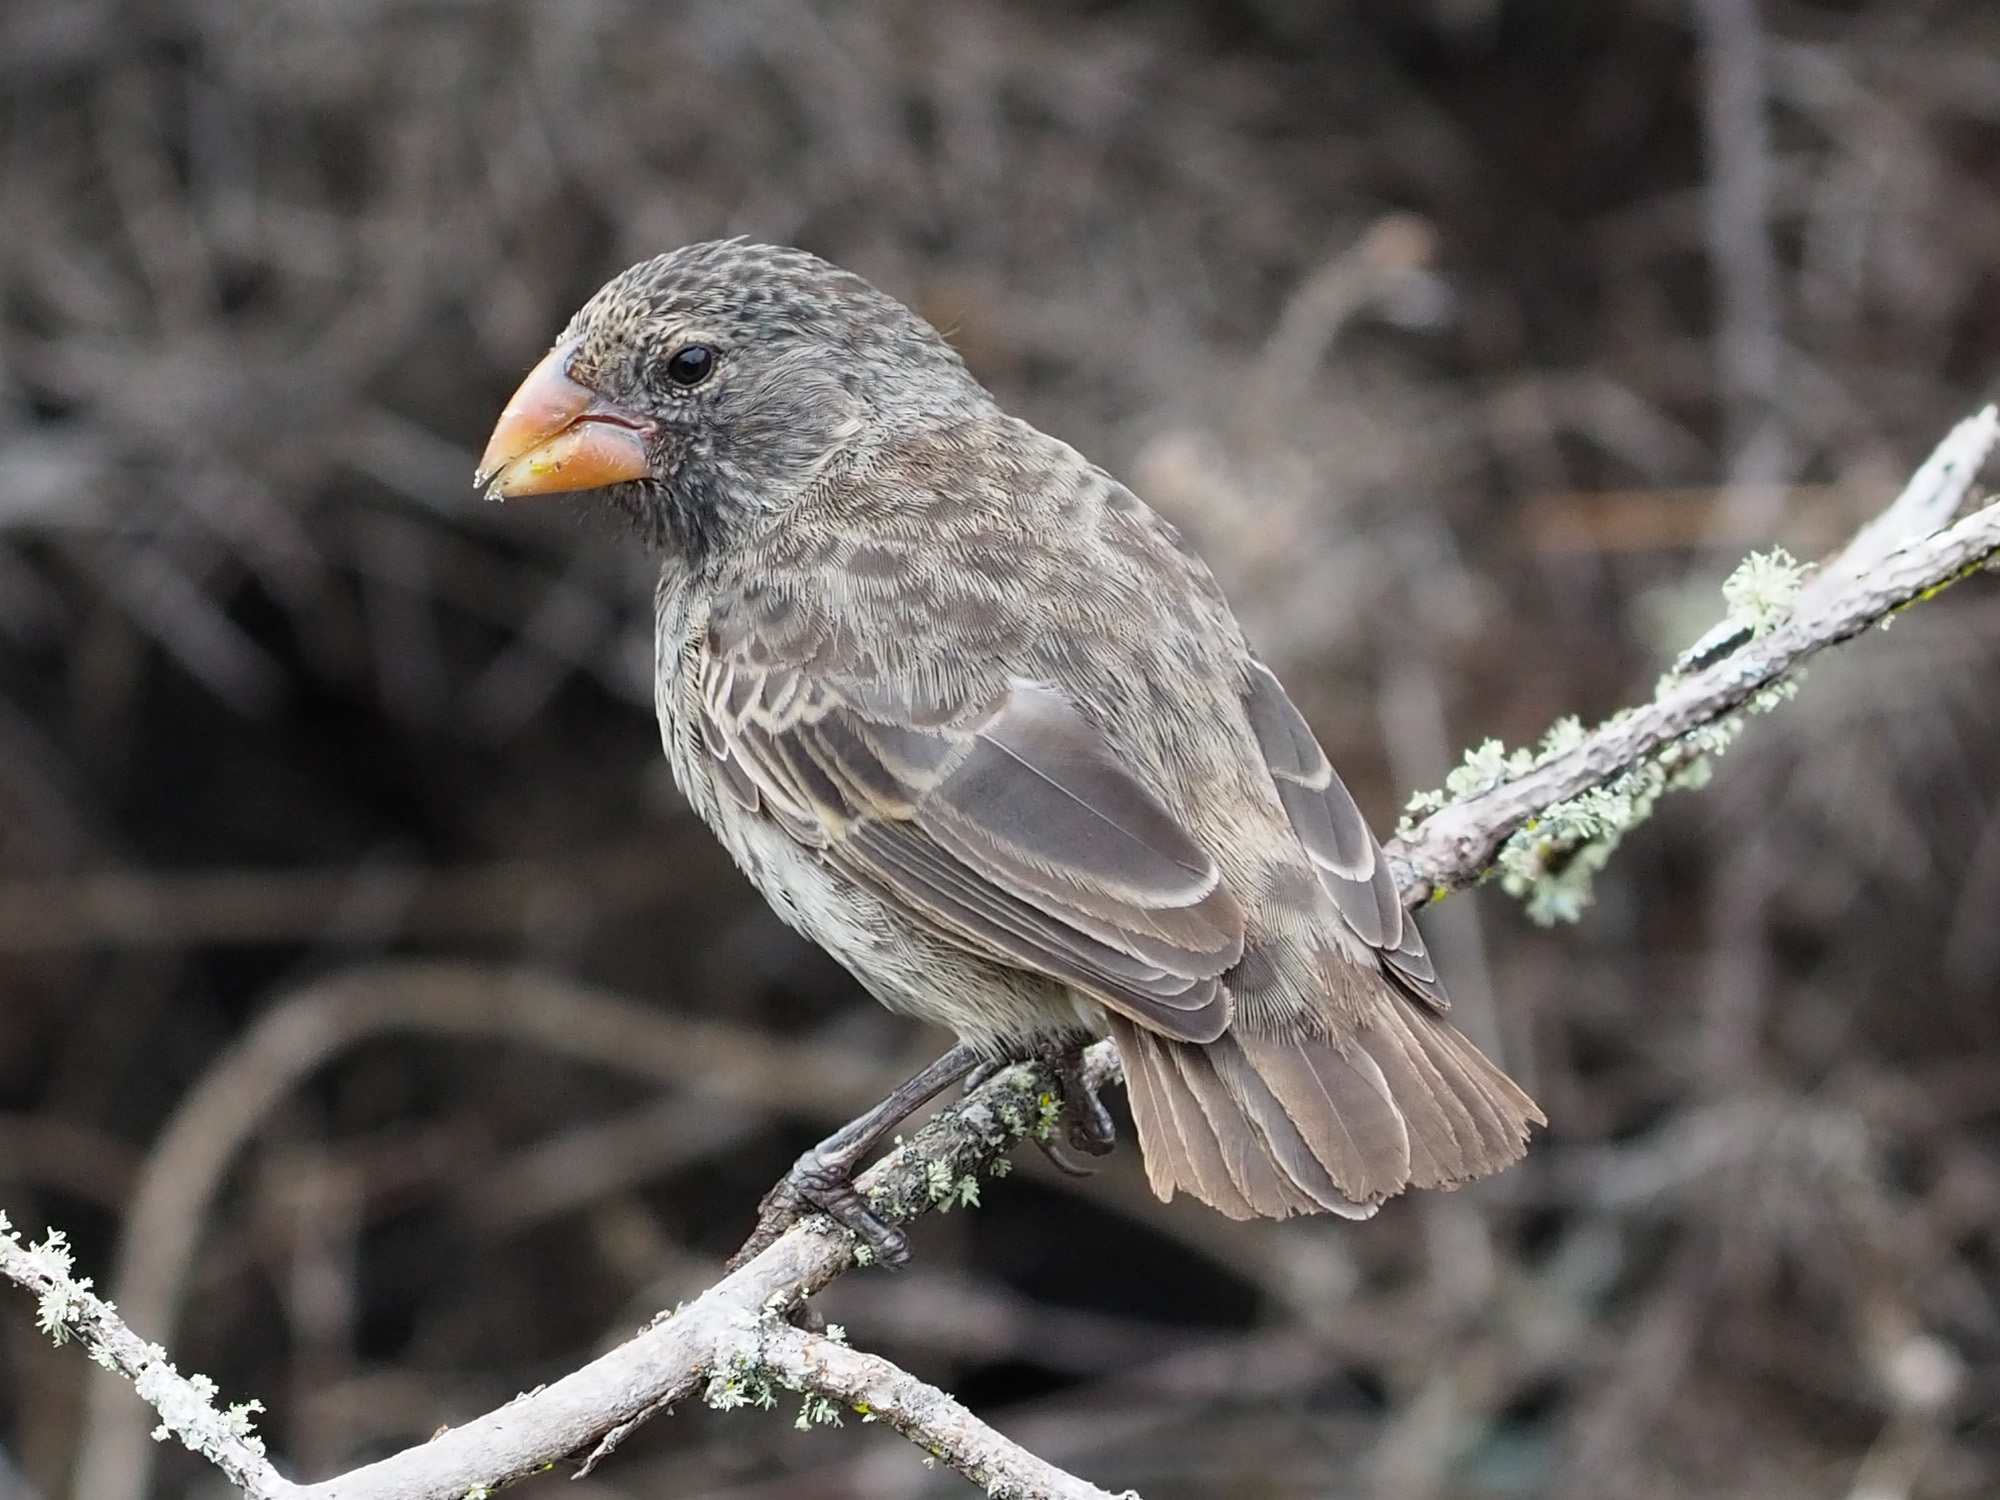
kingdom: Animalia
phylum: Chordata
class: Aves
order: Passeriformes
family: Thraupidae
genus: Geospiza
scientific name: Geospiza fortis
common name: Medium ground finch
